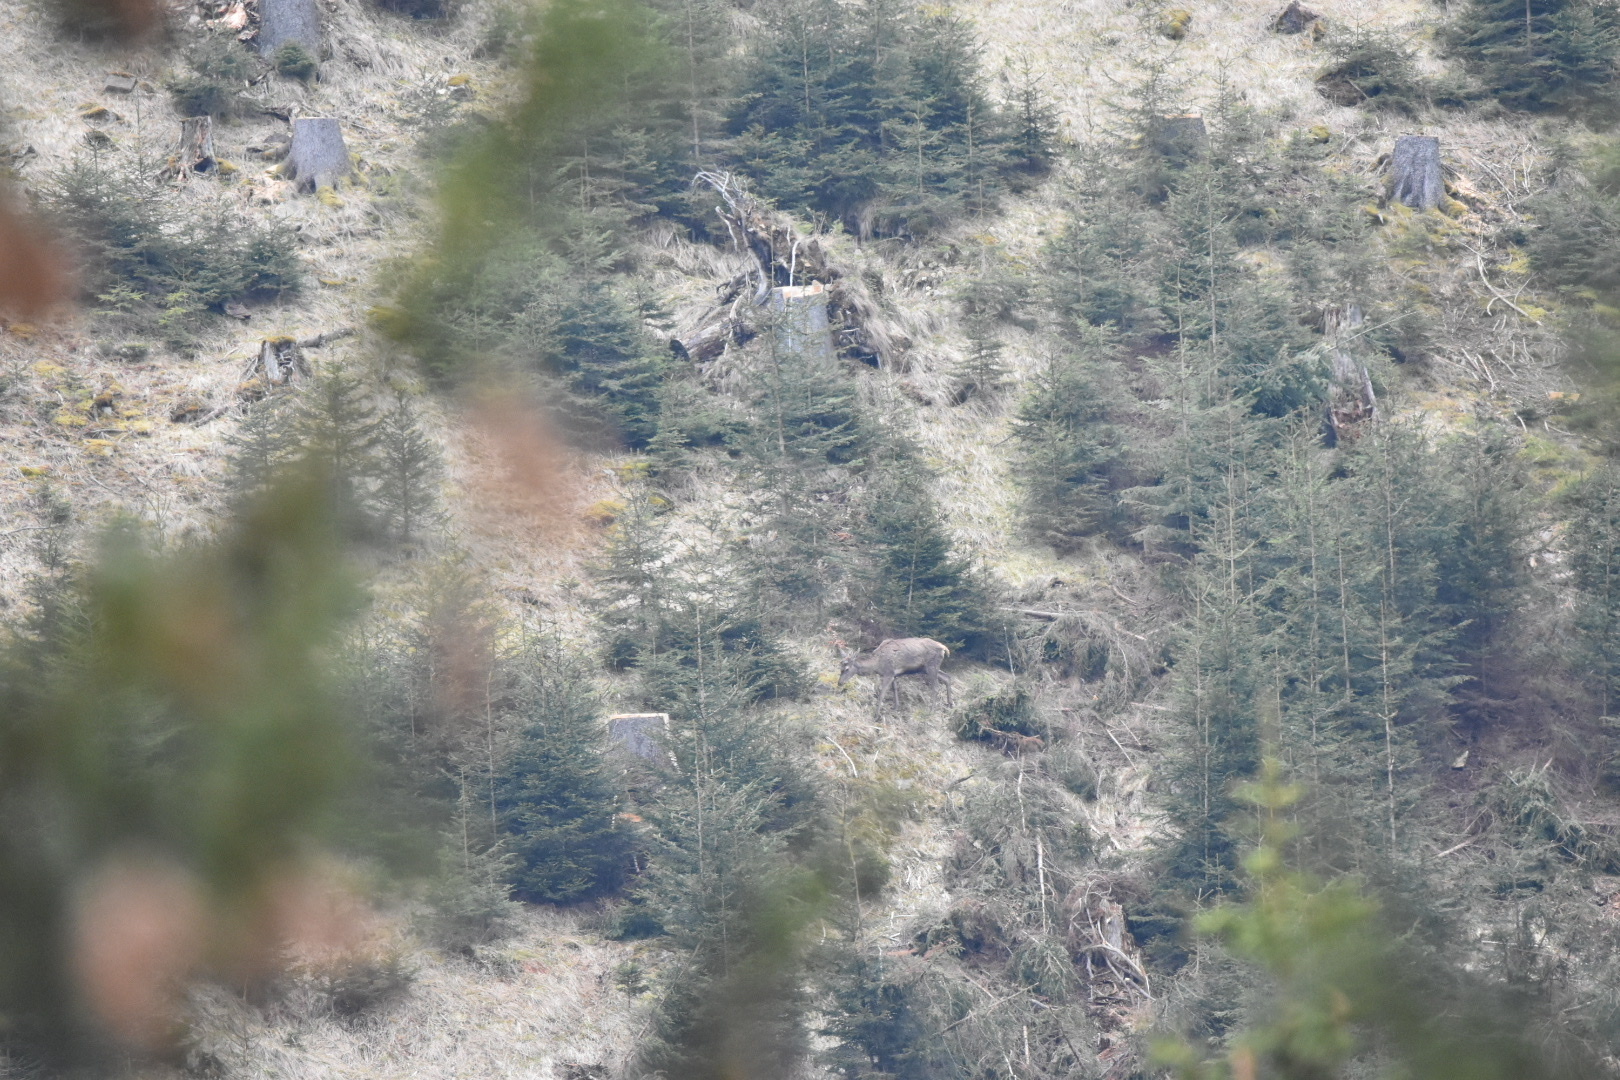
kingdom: Animalia
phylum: Chordata
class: Mammalia
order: Artiodactyla
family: Cervidae
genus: Cervus
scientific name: Cervus elaphus
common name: Red deer
